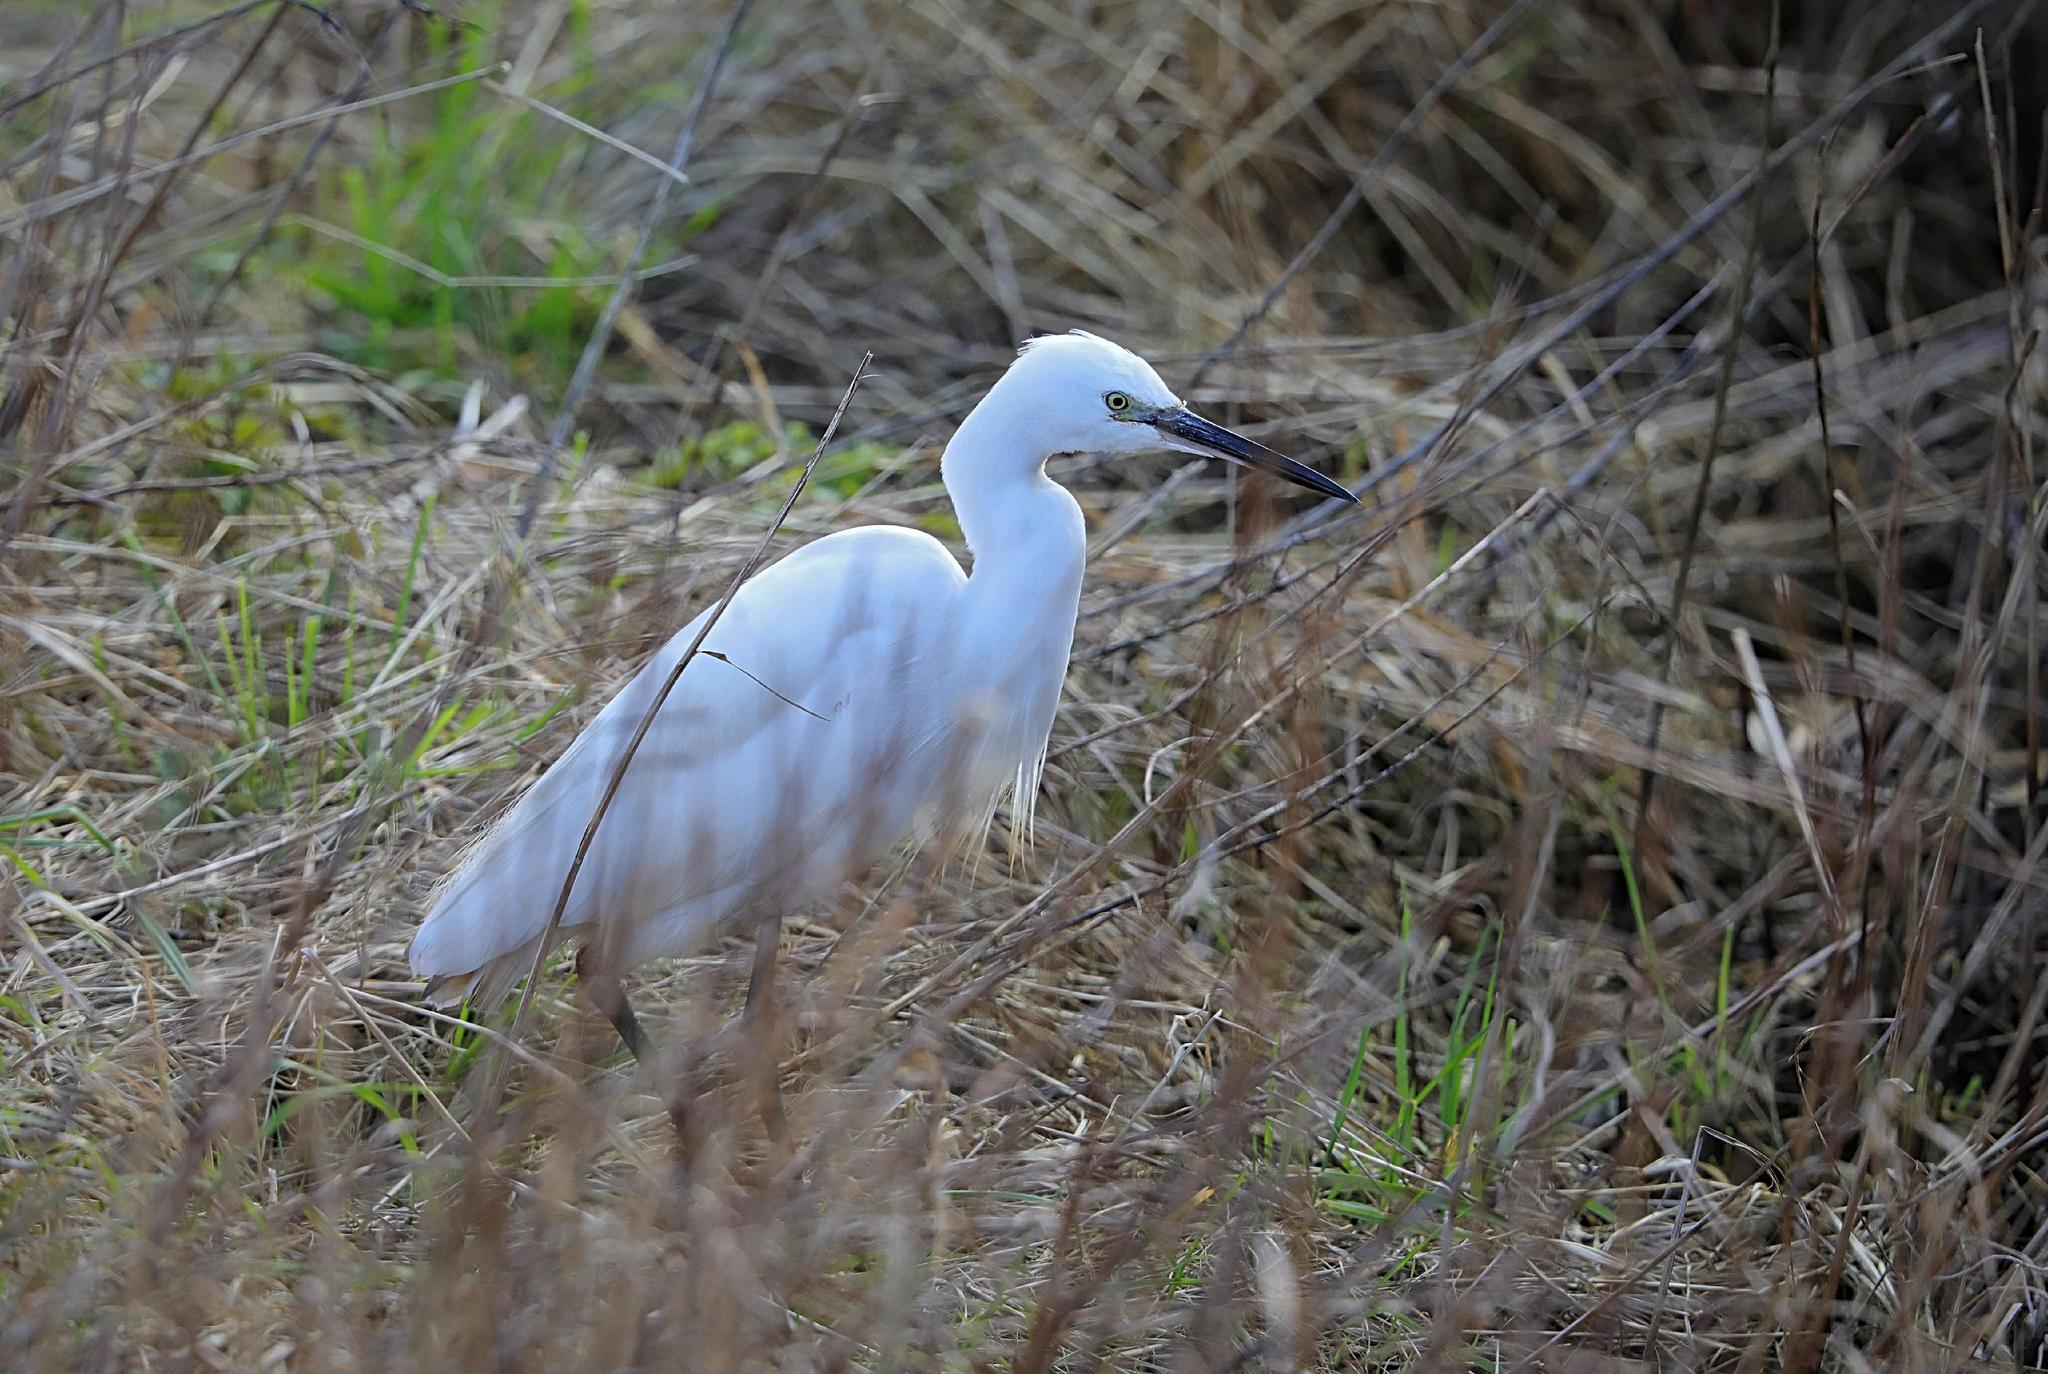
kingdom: Animalia
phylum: Chordata
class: Aves
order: Pelecaniformes
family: Ardeidae
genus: Egretta
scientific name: Egretta garzetta
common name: Little egret
